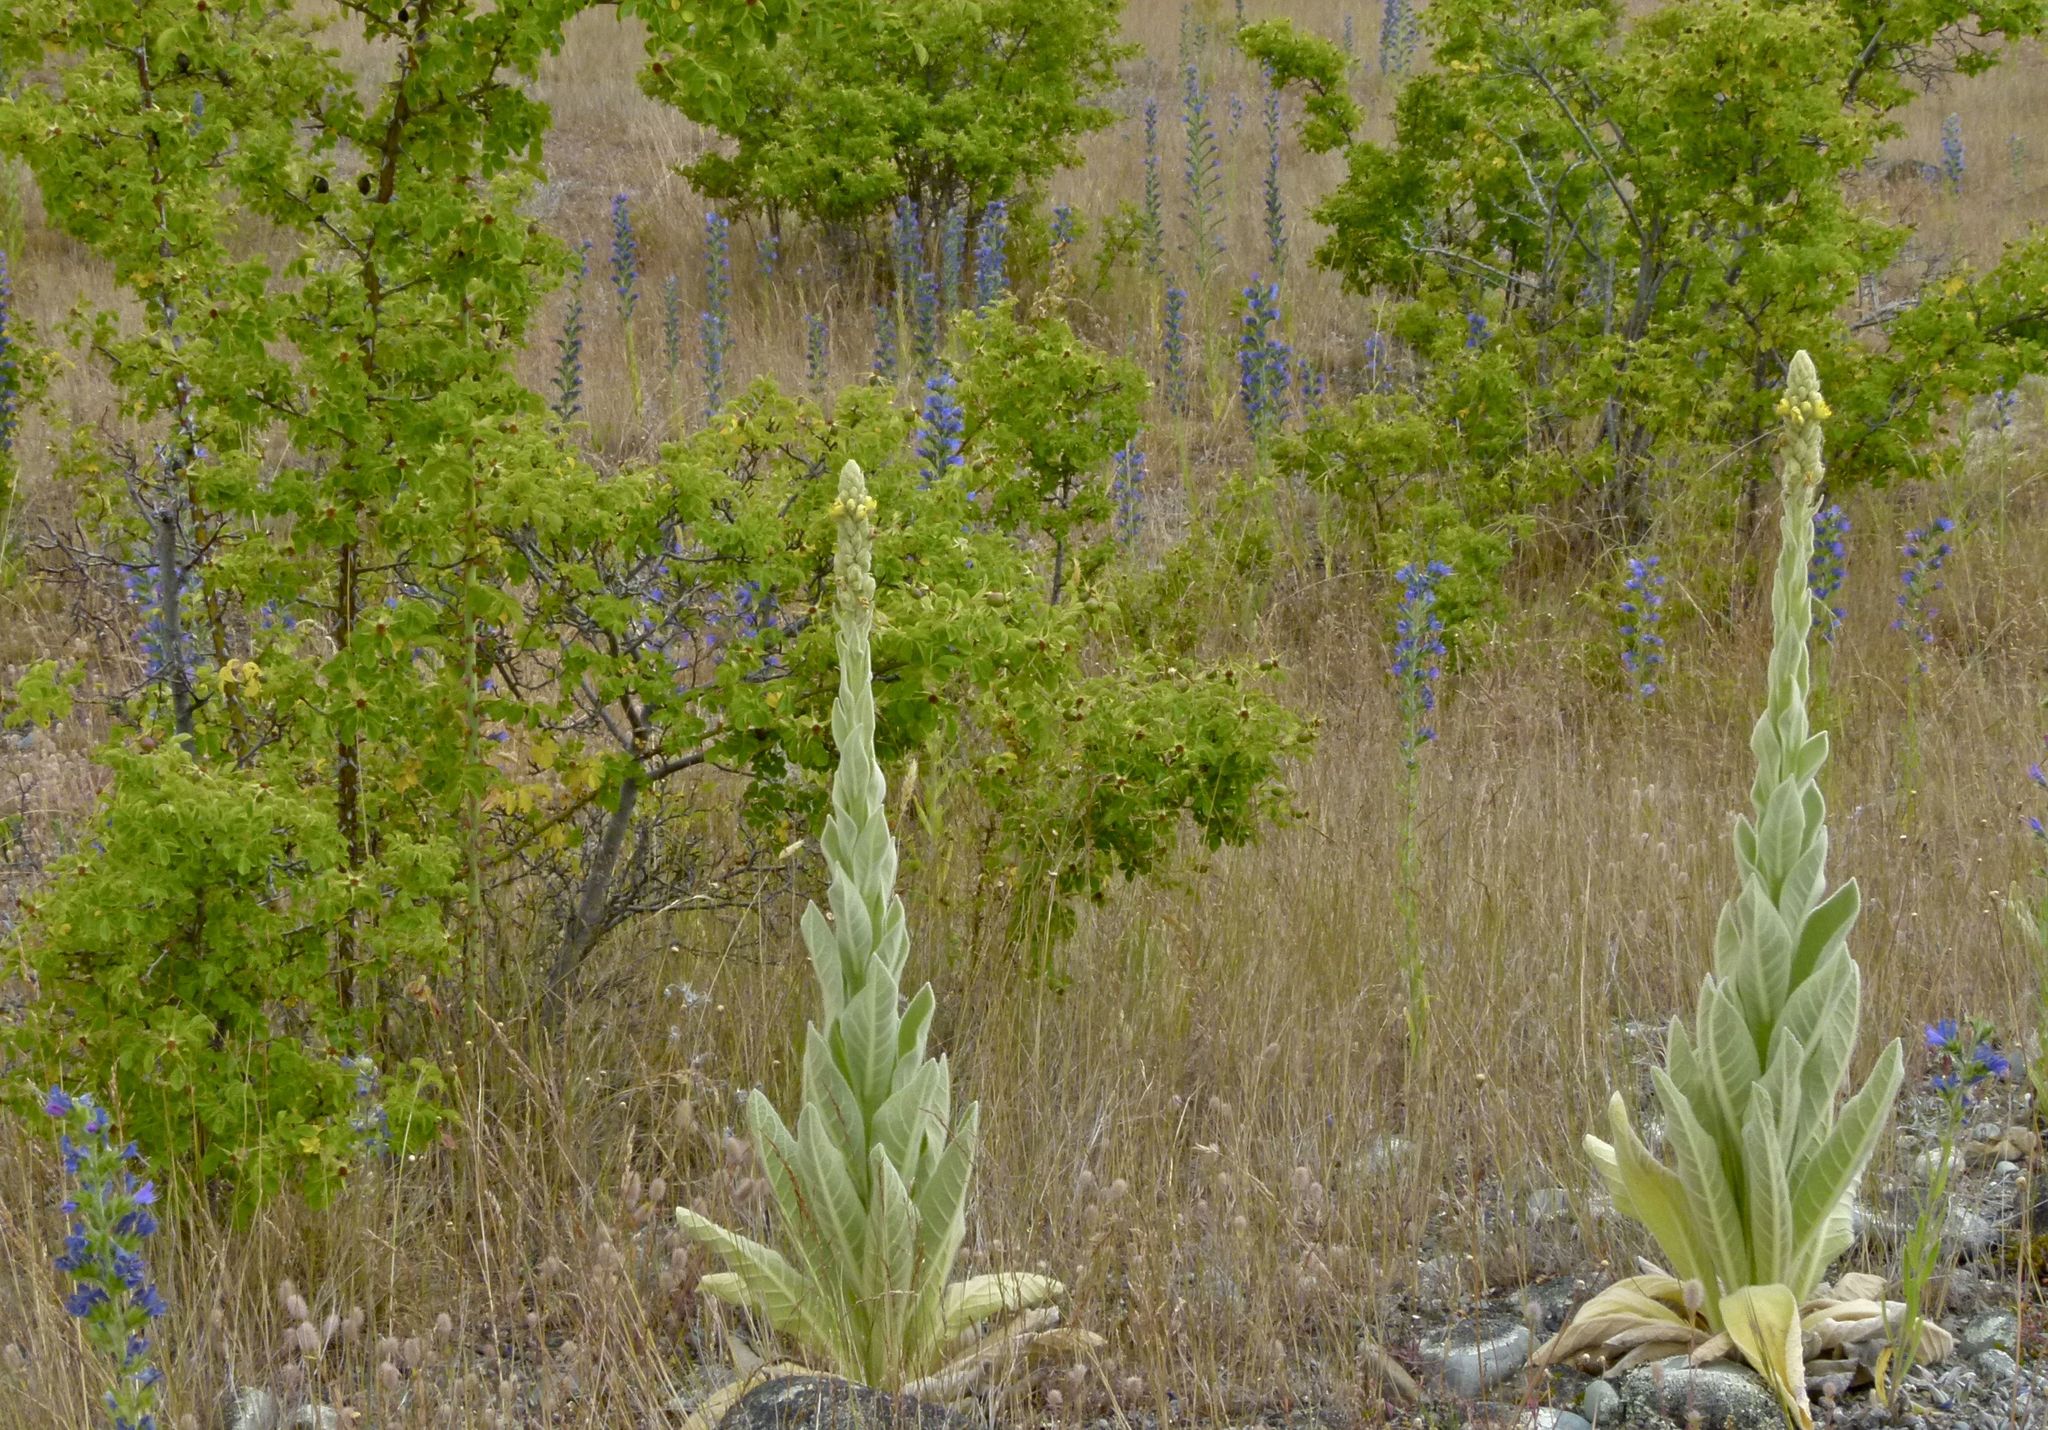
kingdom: Plantae
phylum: Tracheophyta
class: Magnoliopsida
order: Lamiales
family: Scrophulariaceae
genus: Verbascum
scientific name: Verbascum thapsus
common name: Common mullein
